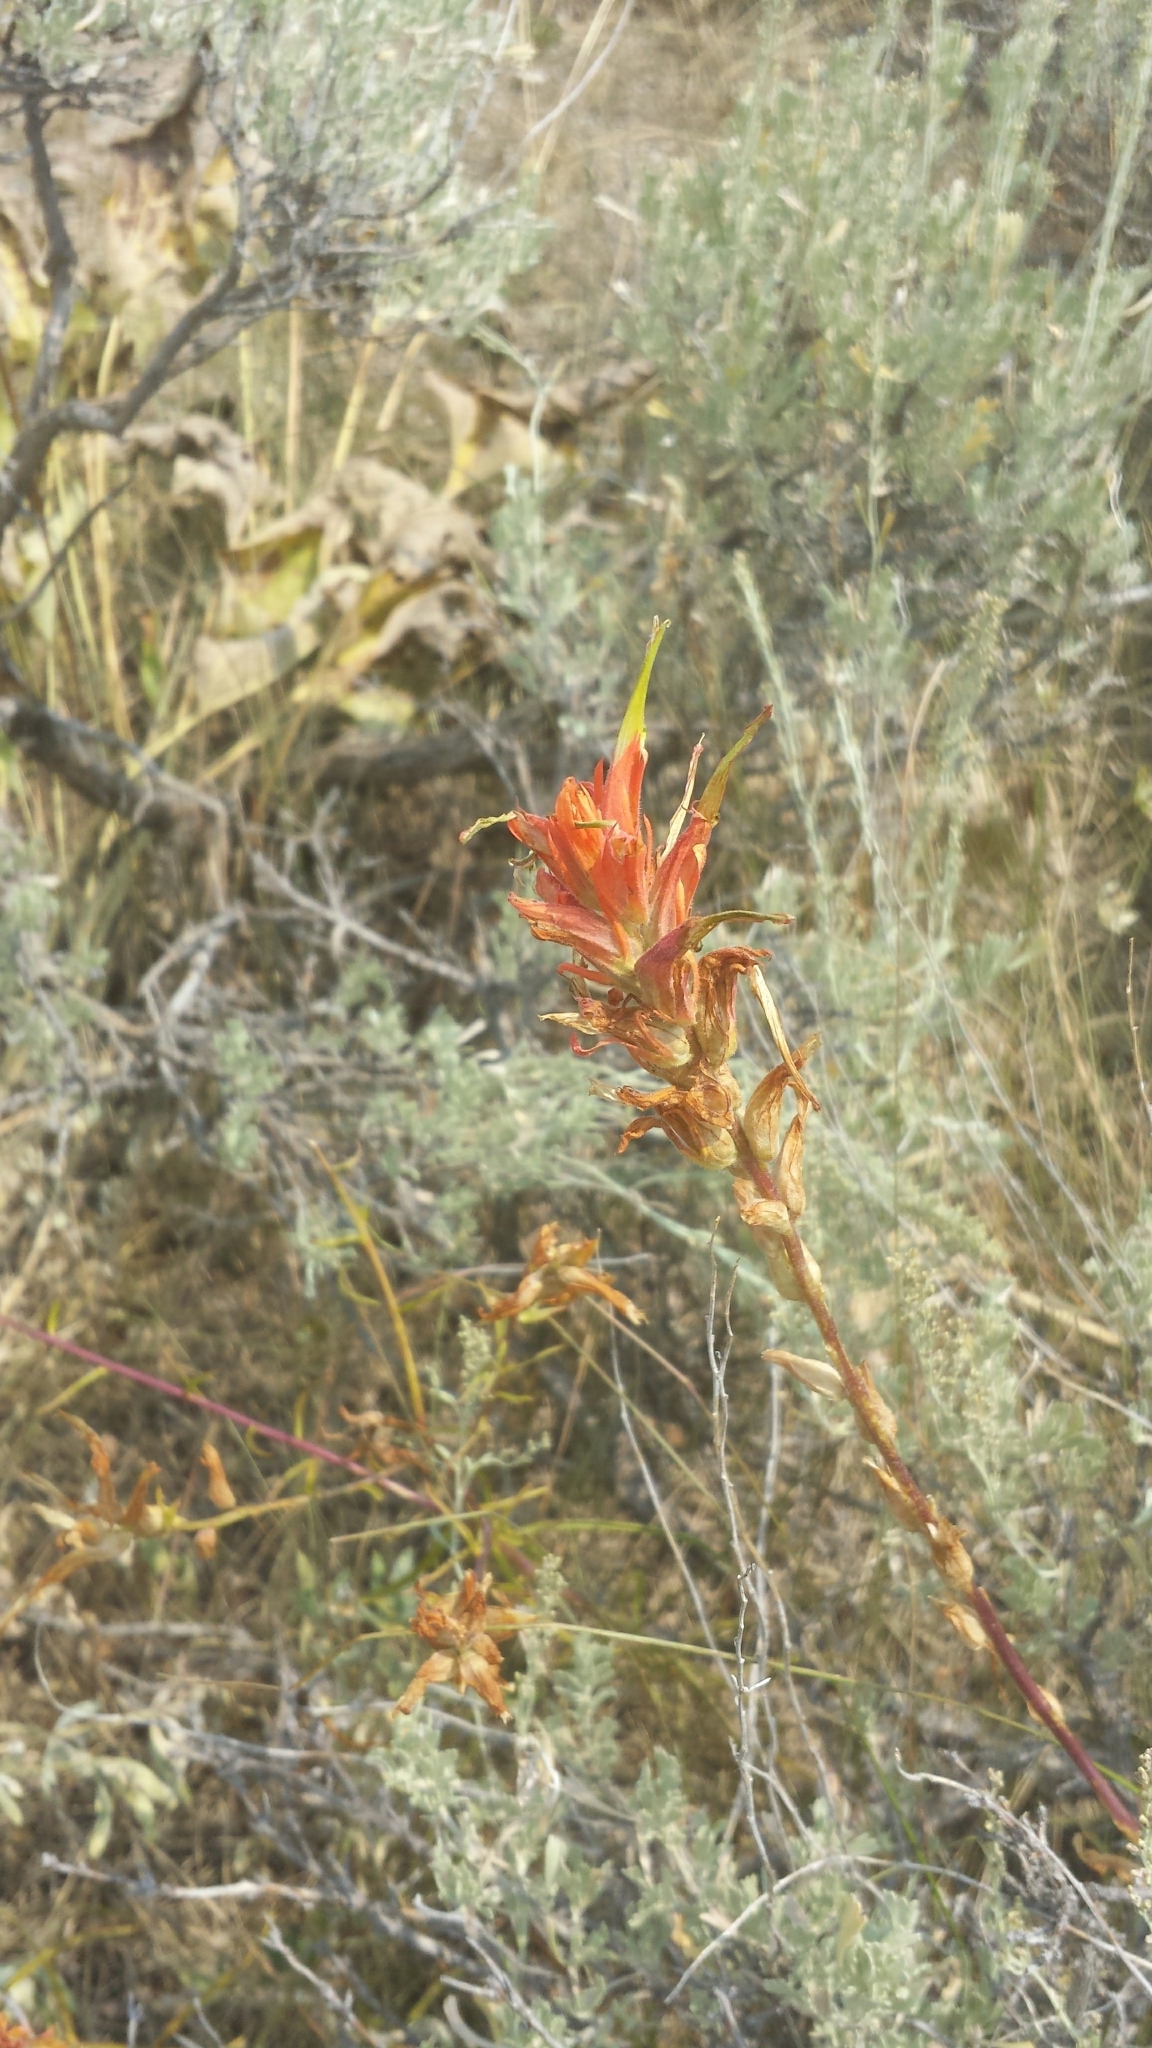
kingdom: Plantae
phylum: Tracheophyta
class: Magnoliopsida
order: Lamiales
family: Orobanchaceae
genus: Castilleja
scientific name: Castilleja linariifolia
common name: Wyoming paintbrush
